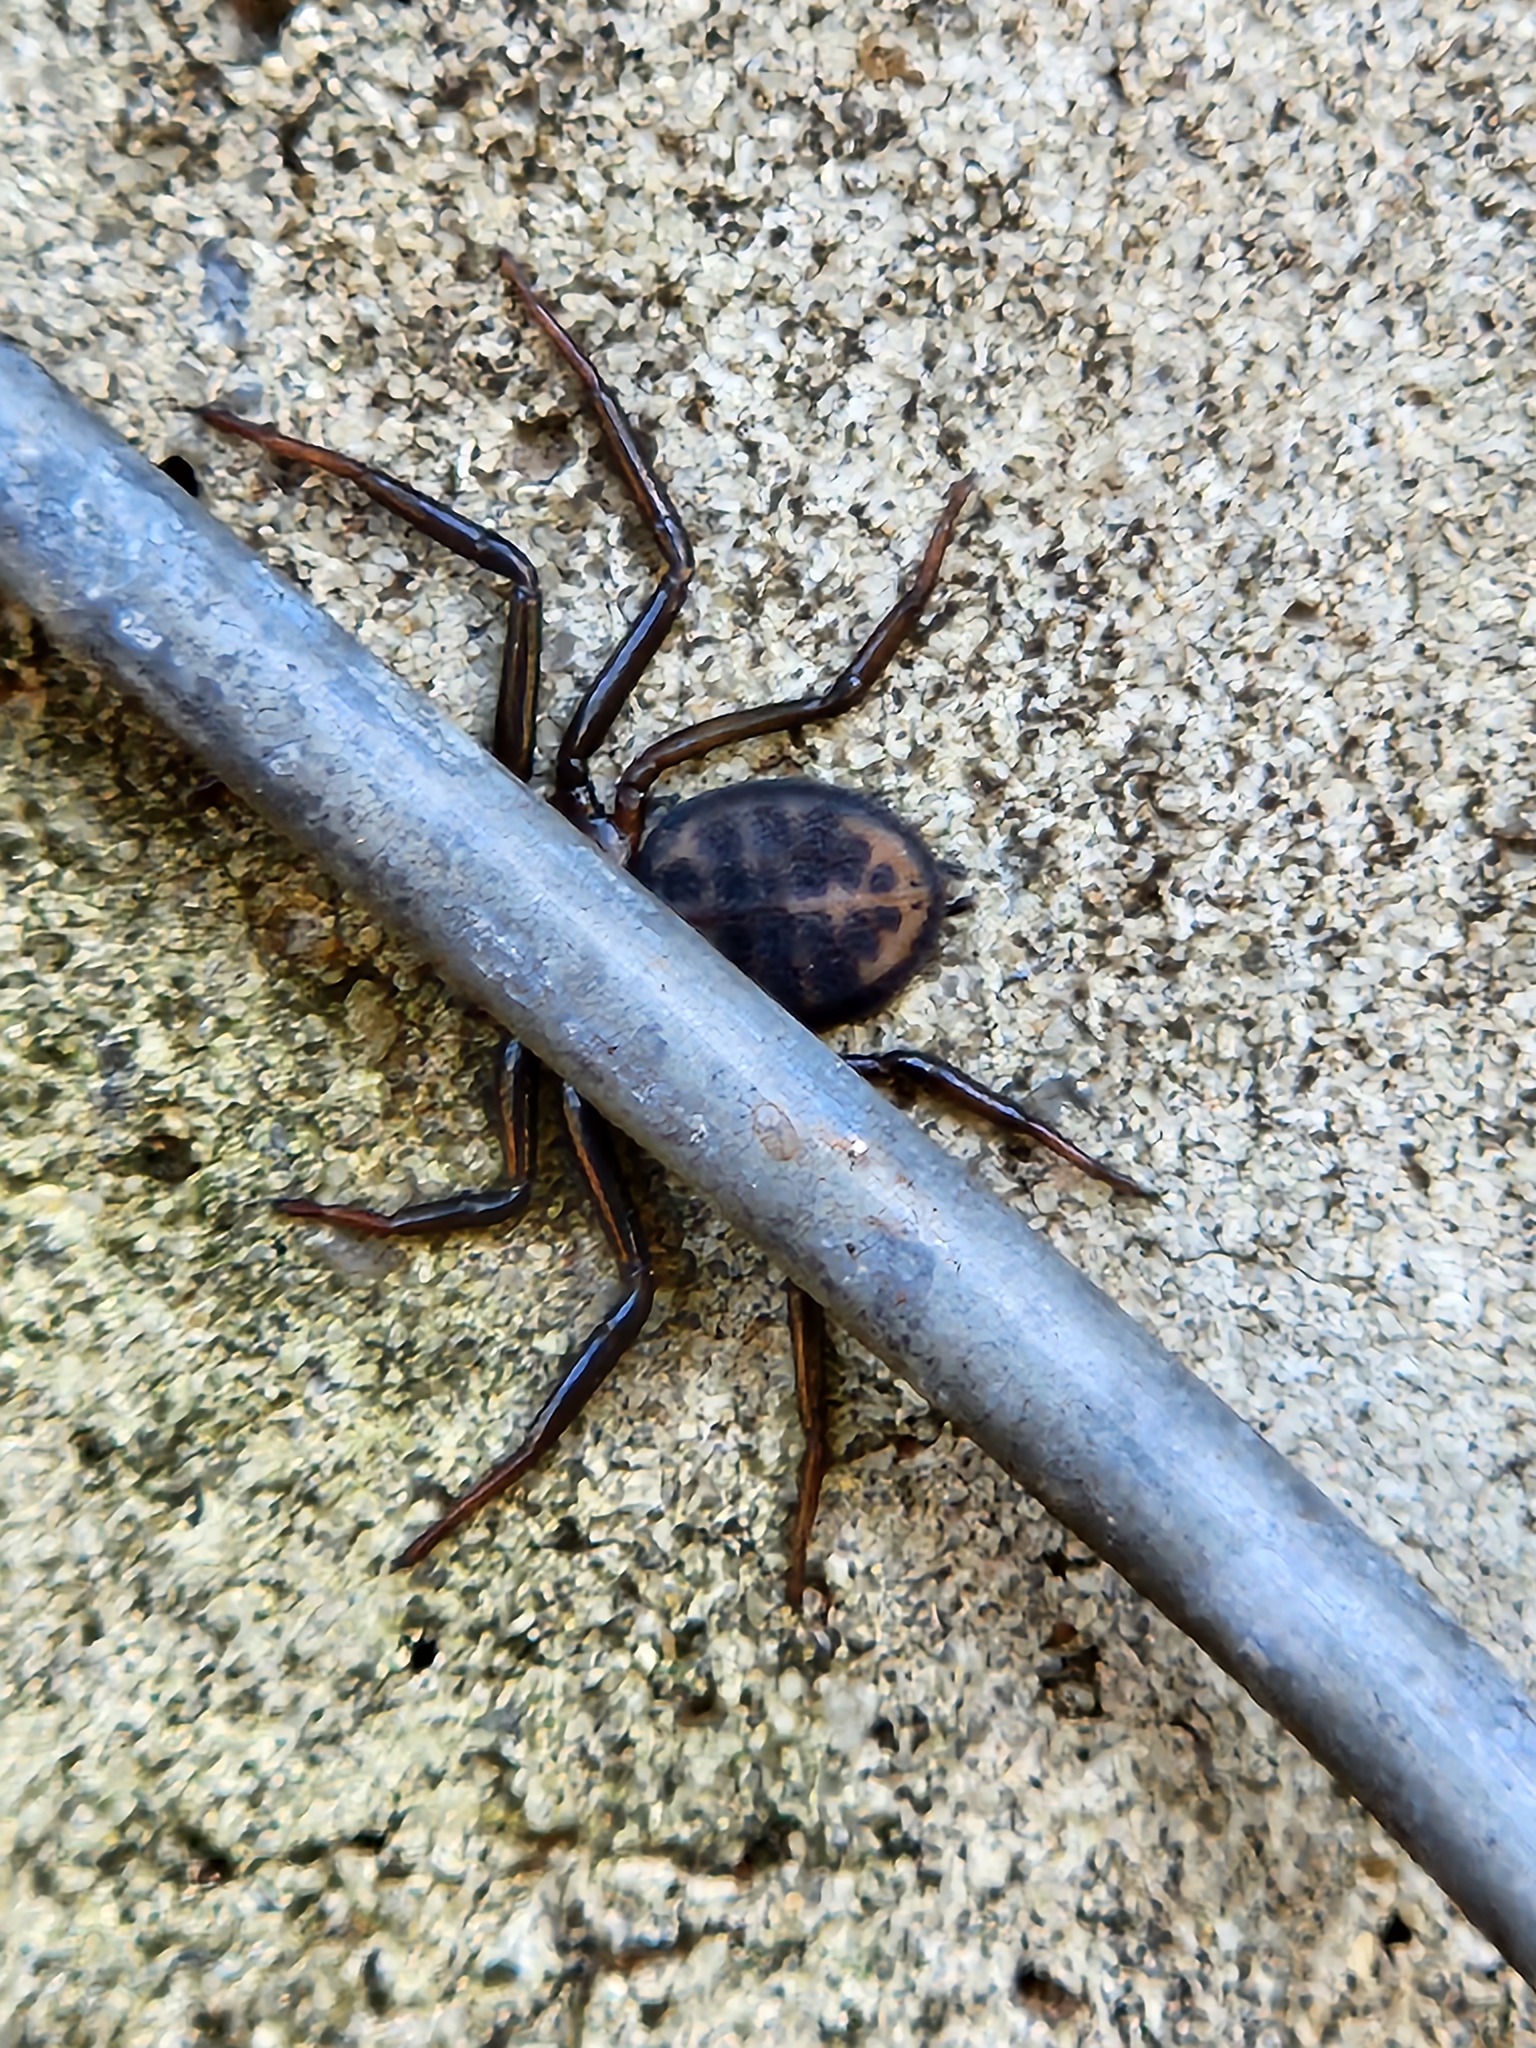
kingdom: Animalia
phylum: Arthropoda
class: Arachnida
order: Araneae
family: Trochanteriidae
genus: Vectius
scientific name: Vectius niger
